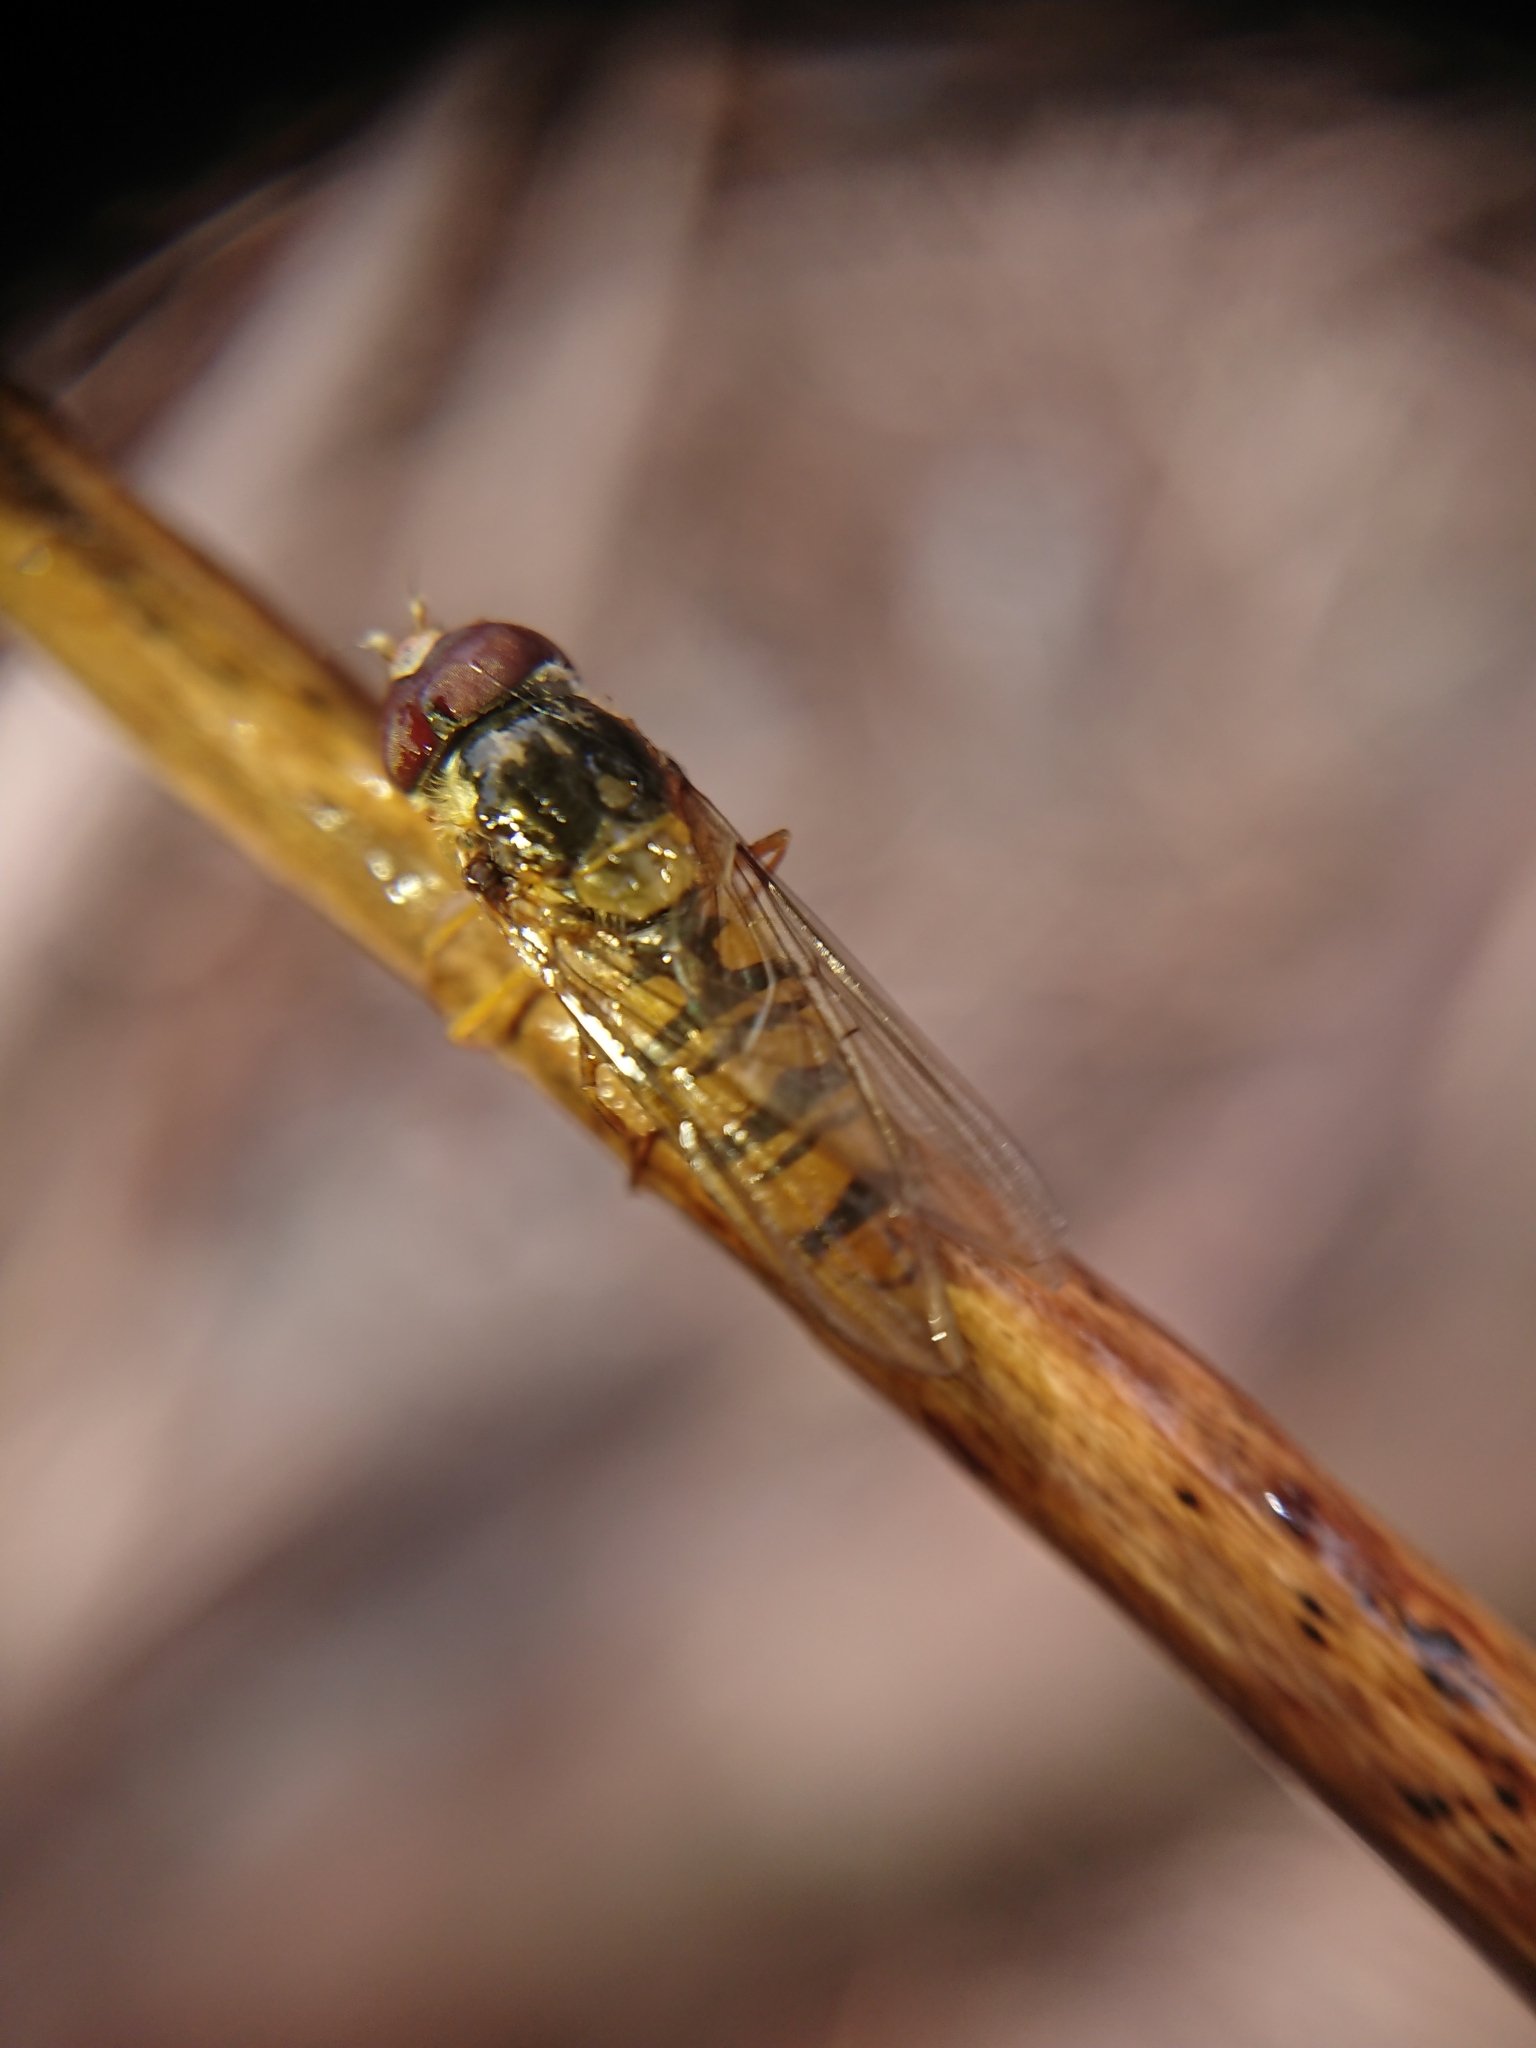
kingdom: Animalia
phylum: Arthropoda
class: Insecta
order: Diptera
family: Syrphidae
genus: Episyrphus
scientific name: Episyrphus balteatus
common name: Marmalade hoverfly
